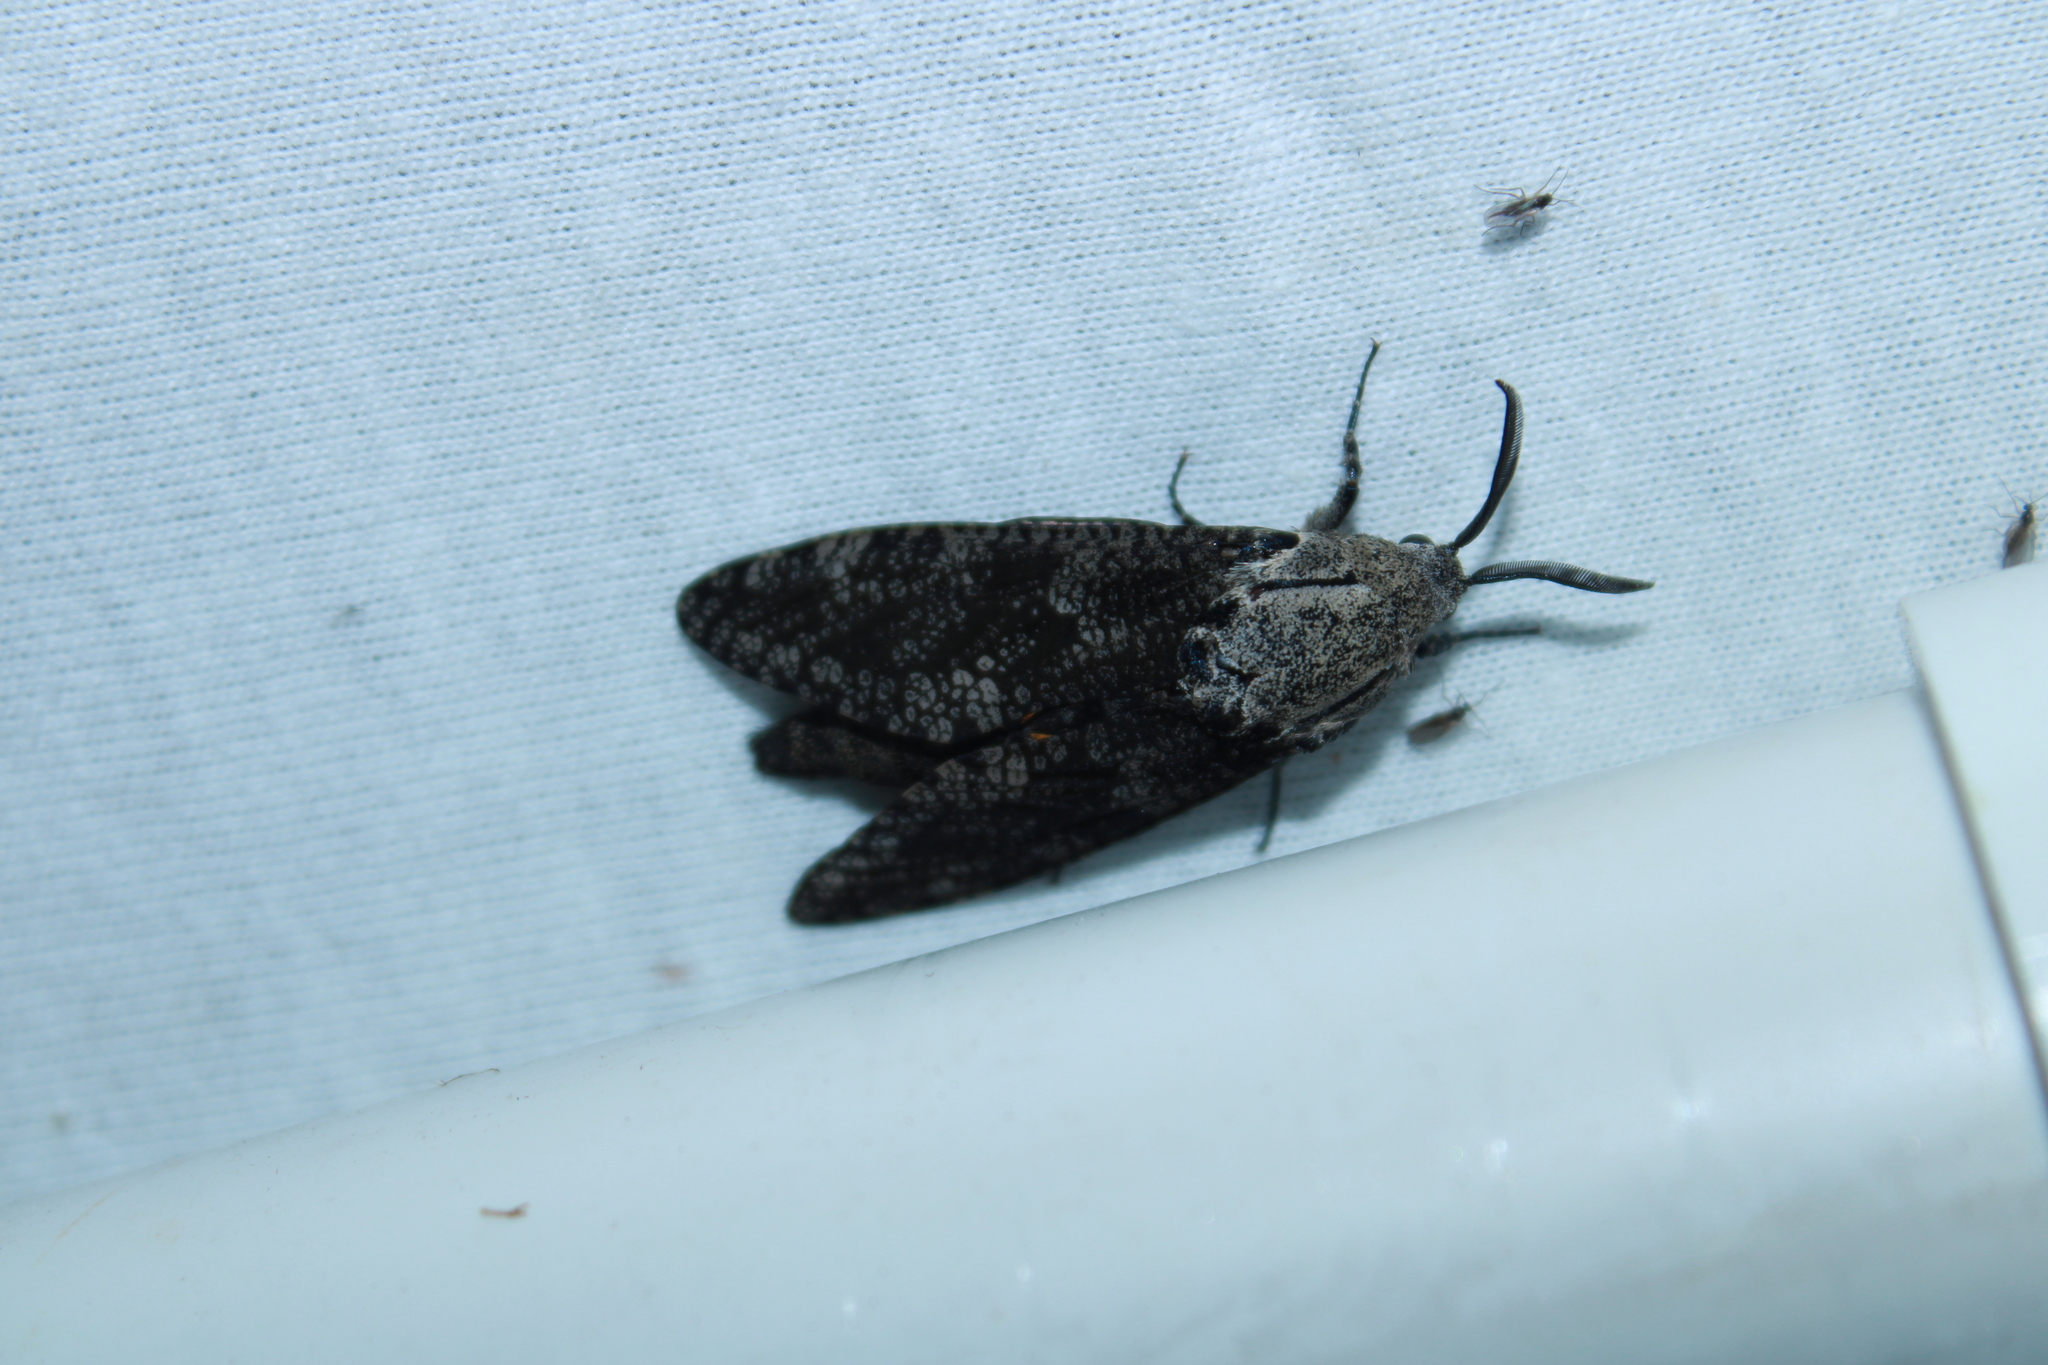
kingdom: Animalia
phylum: Arthropoda
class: Insecta
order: Lepidoptera
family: Cossidae
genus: Prionoxystus
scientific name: Prionoxystus robiniae
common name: Carpenterworm
